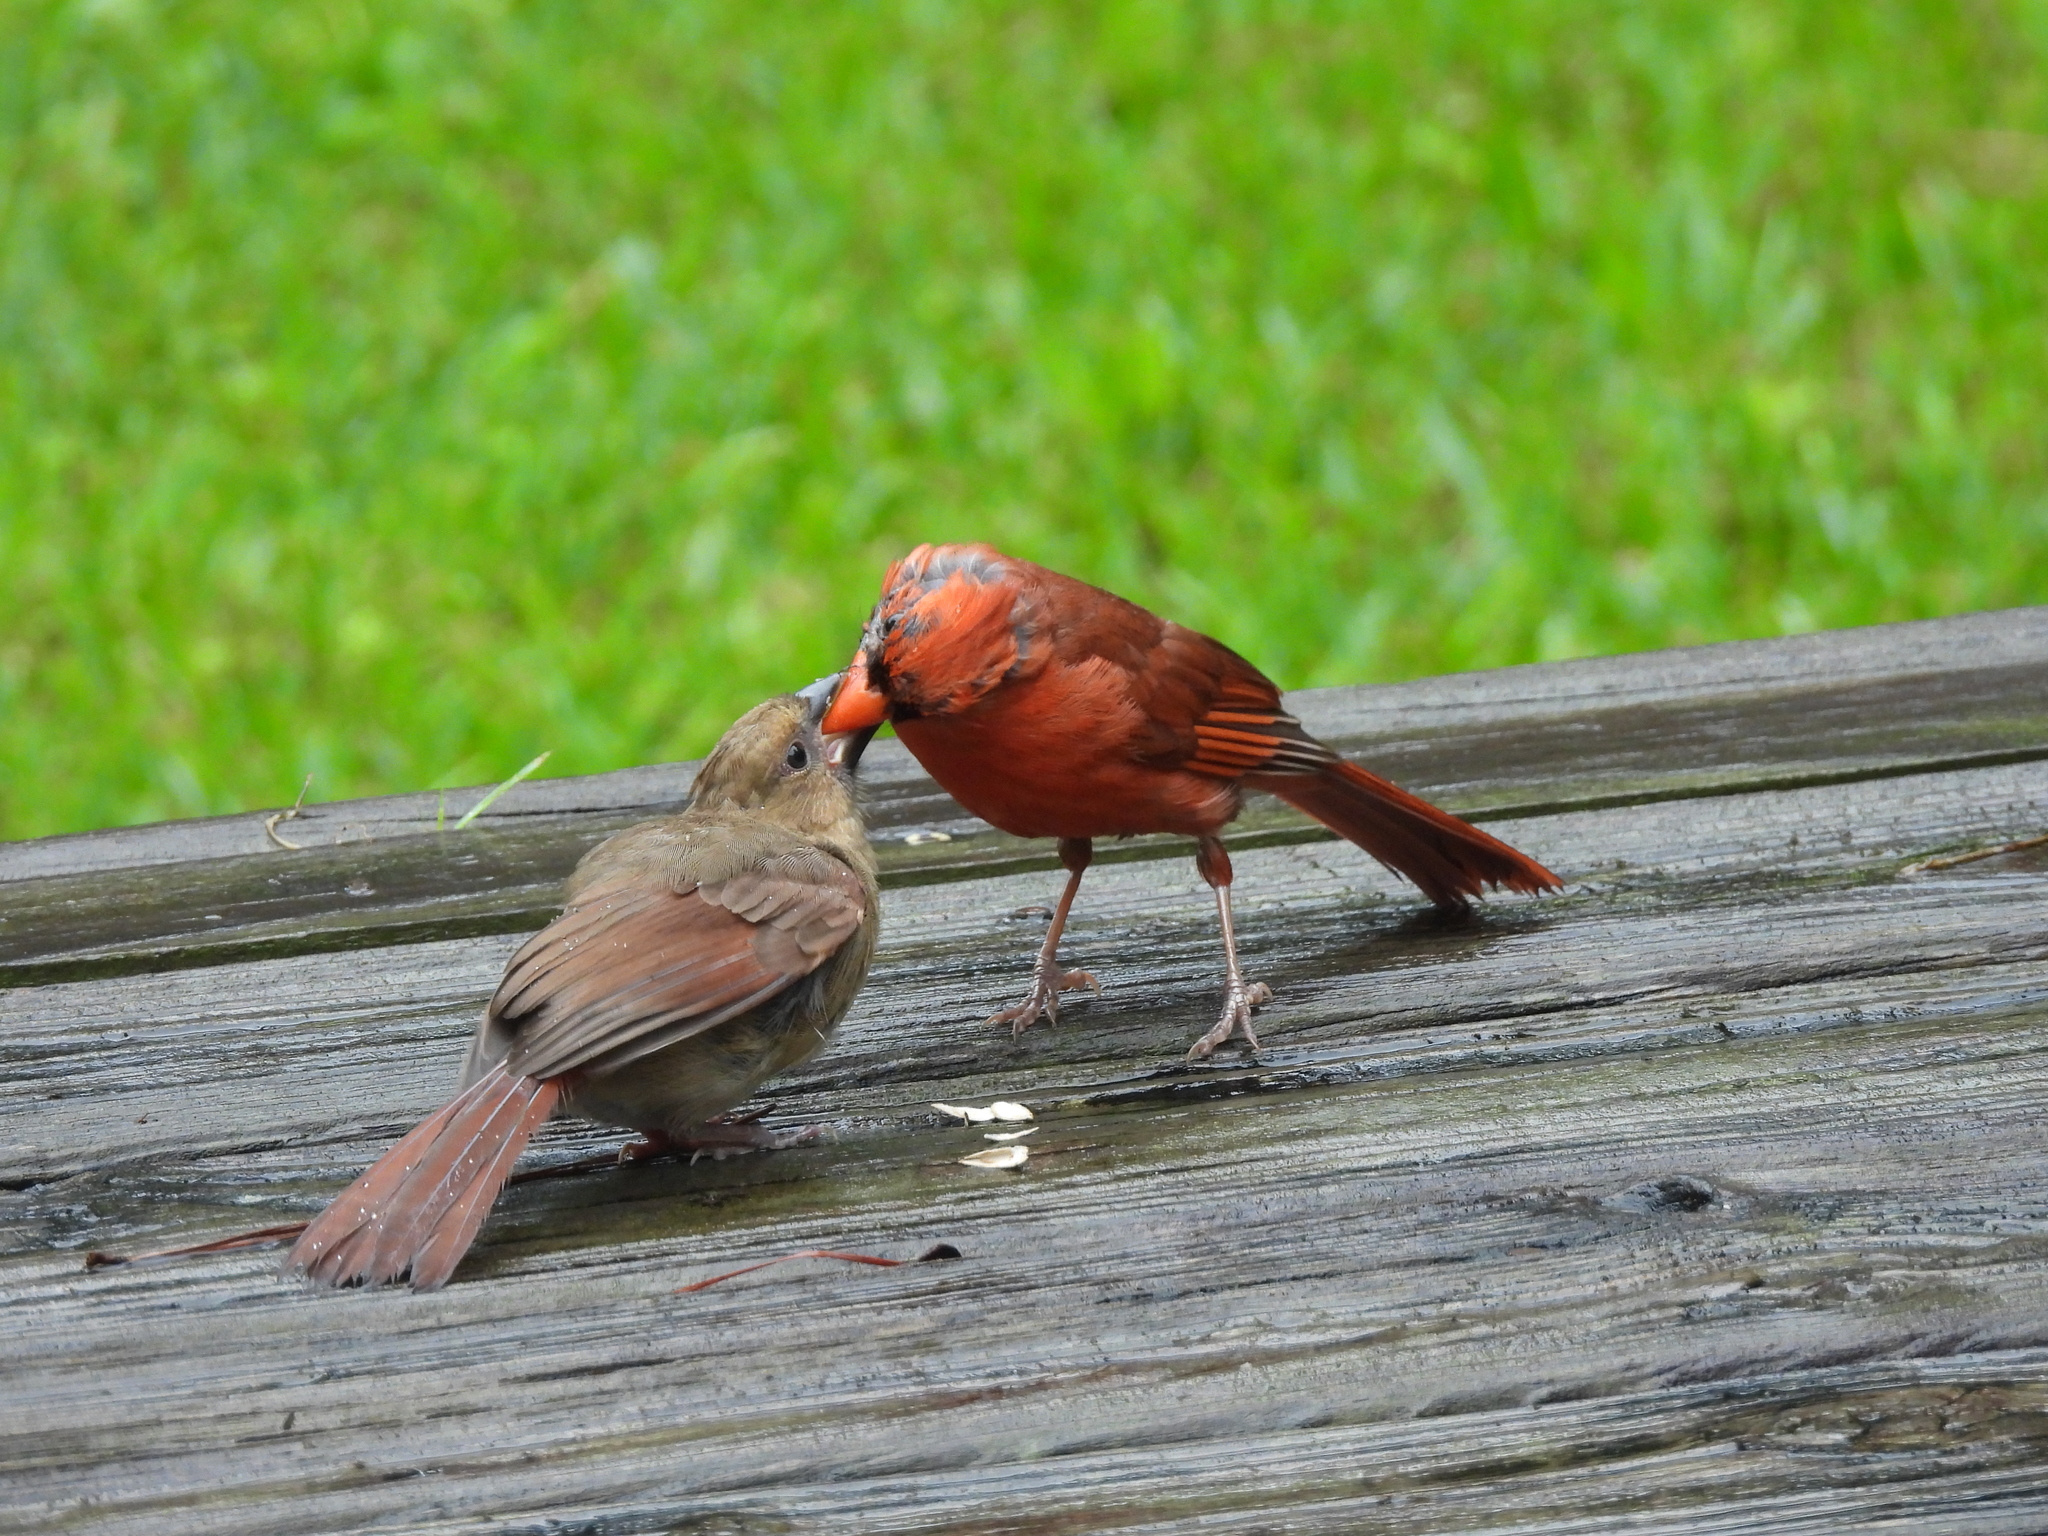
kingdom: Animalia
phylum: Chordata
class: Aves
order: Passeriformes
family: Cardinalidae
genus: Cardinalis
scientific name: Cardinalis cardinalis
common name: Northern cardinal
